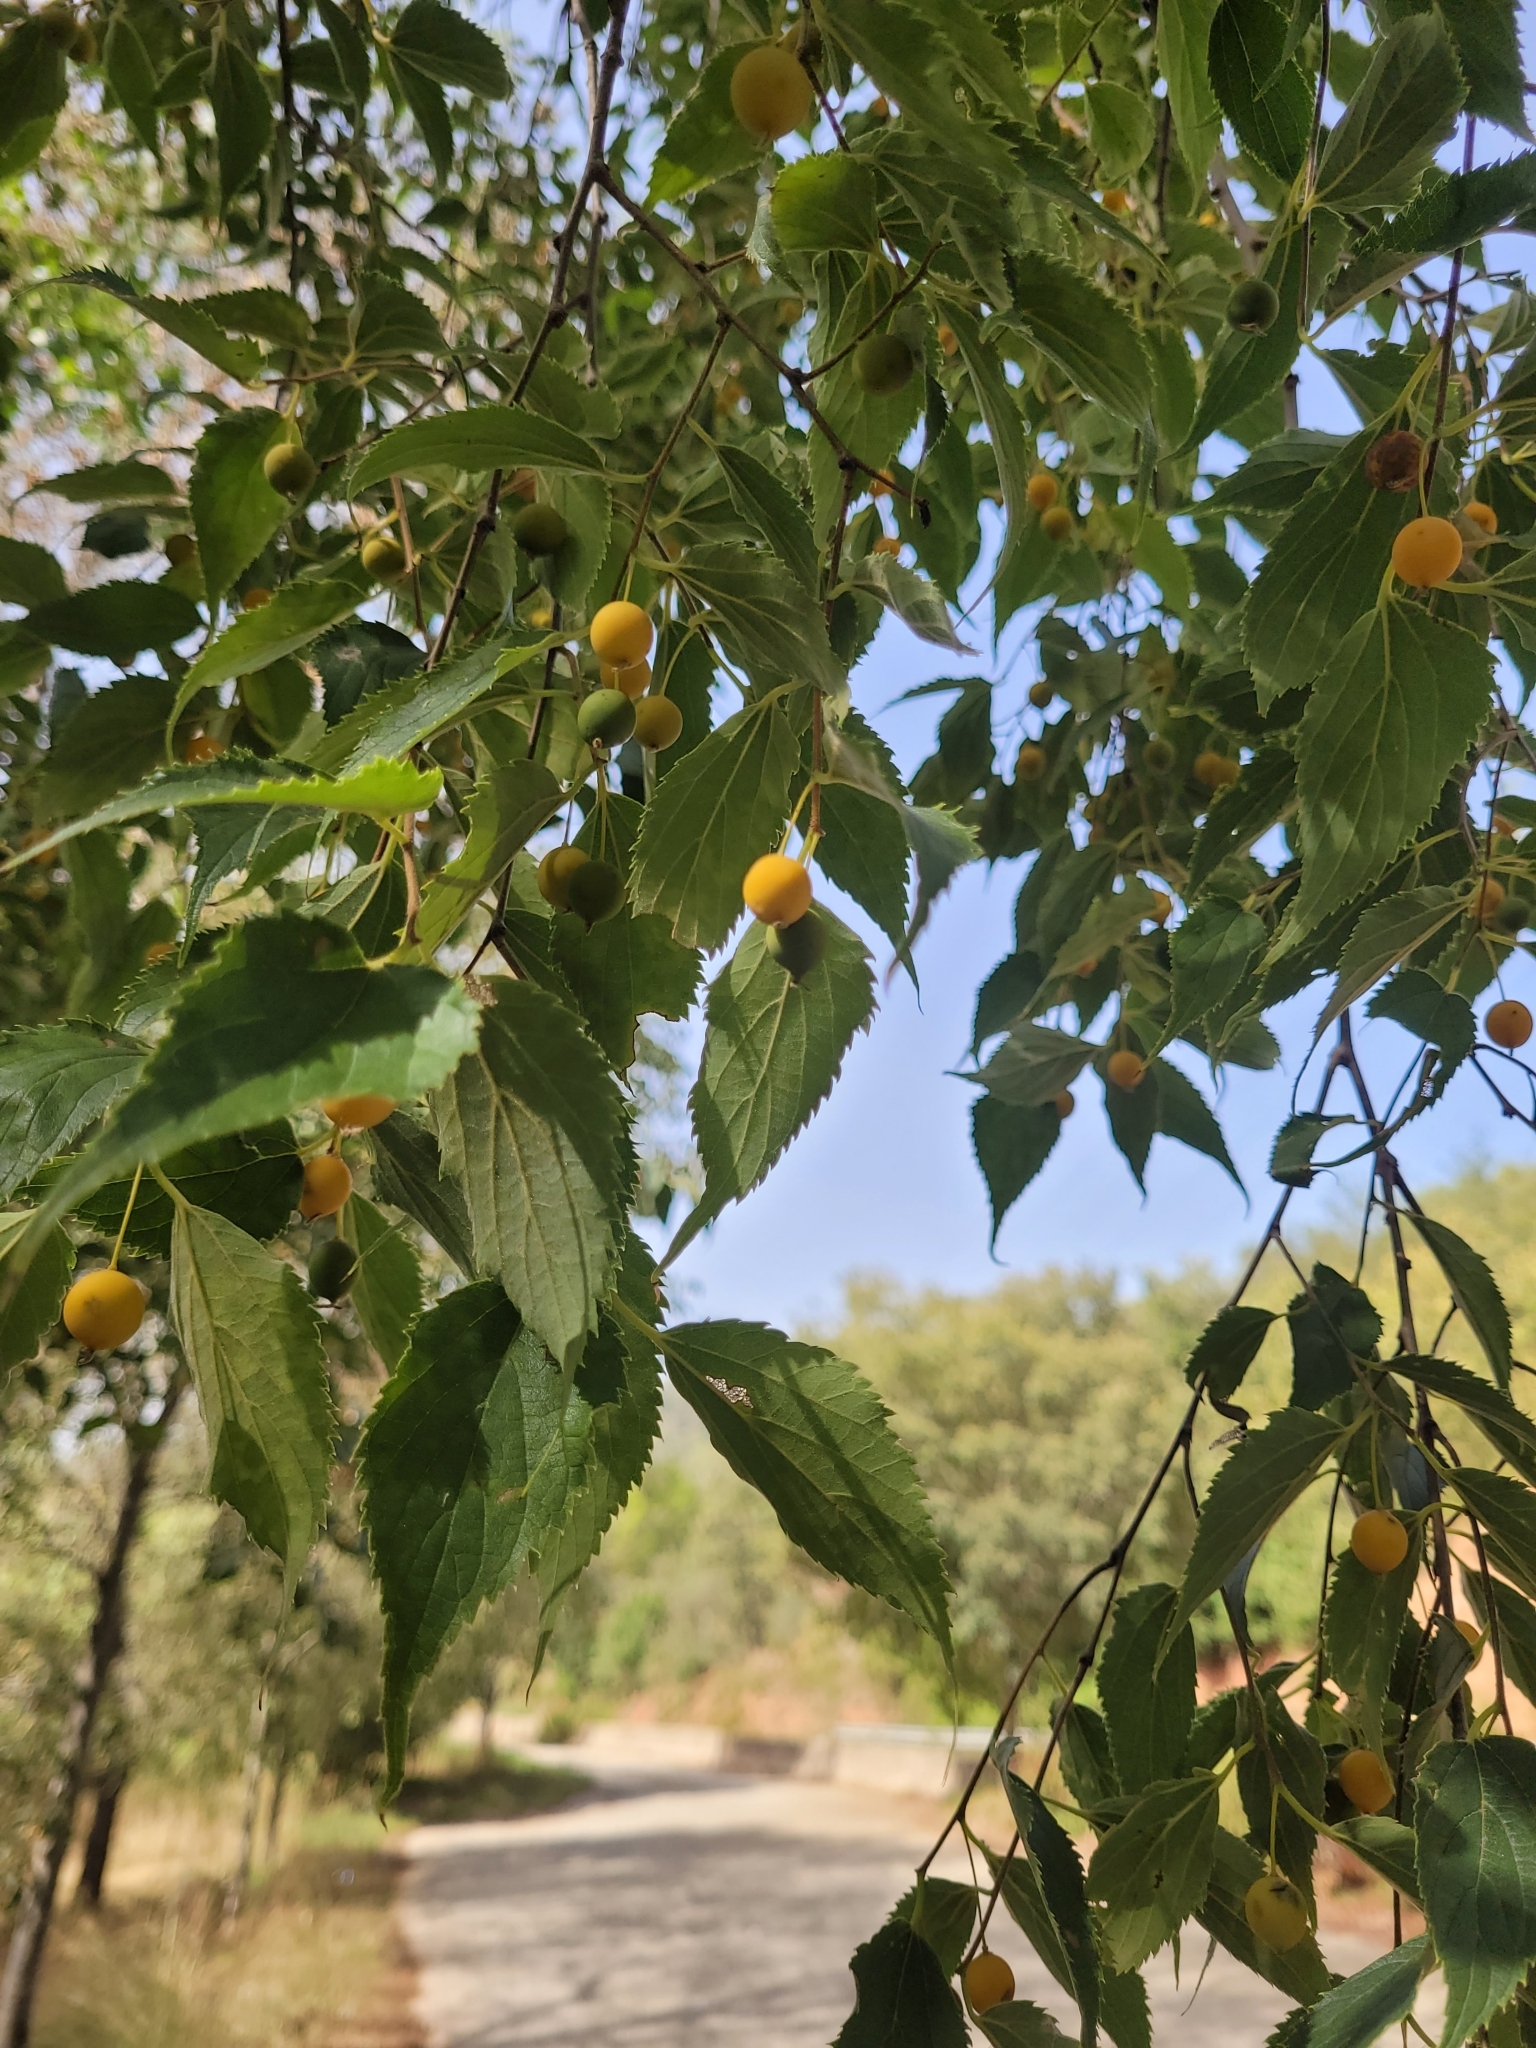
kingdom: Plantae
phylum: Tracheophyta
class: Magnoliopsida
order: Rosales
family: Cannabaceae
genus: Celtis
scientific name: Celtis australis
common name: European hackberry
